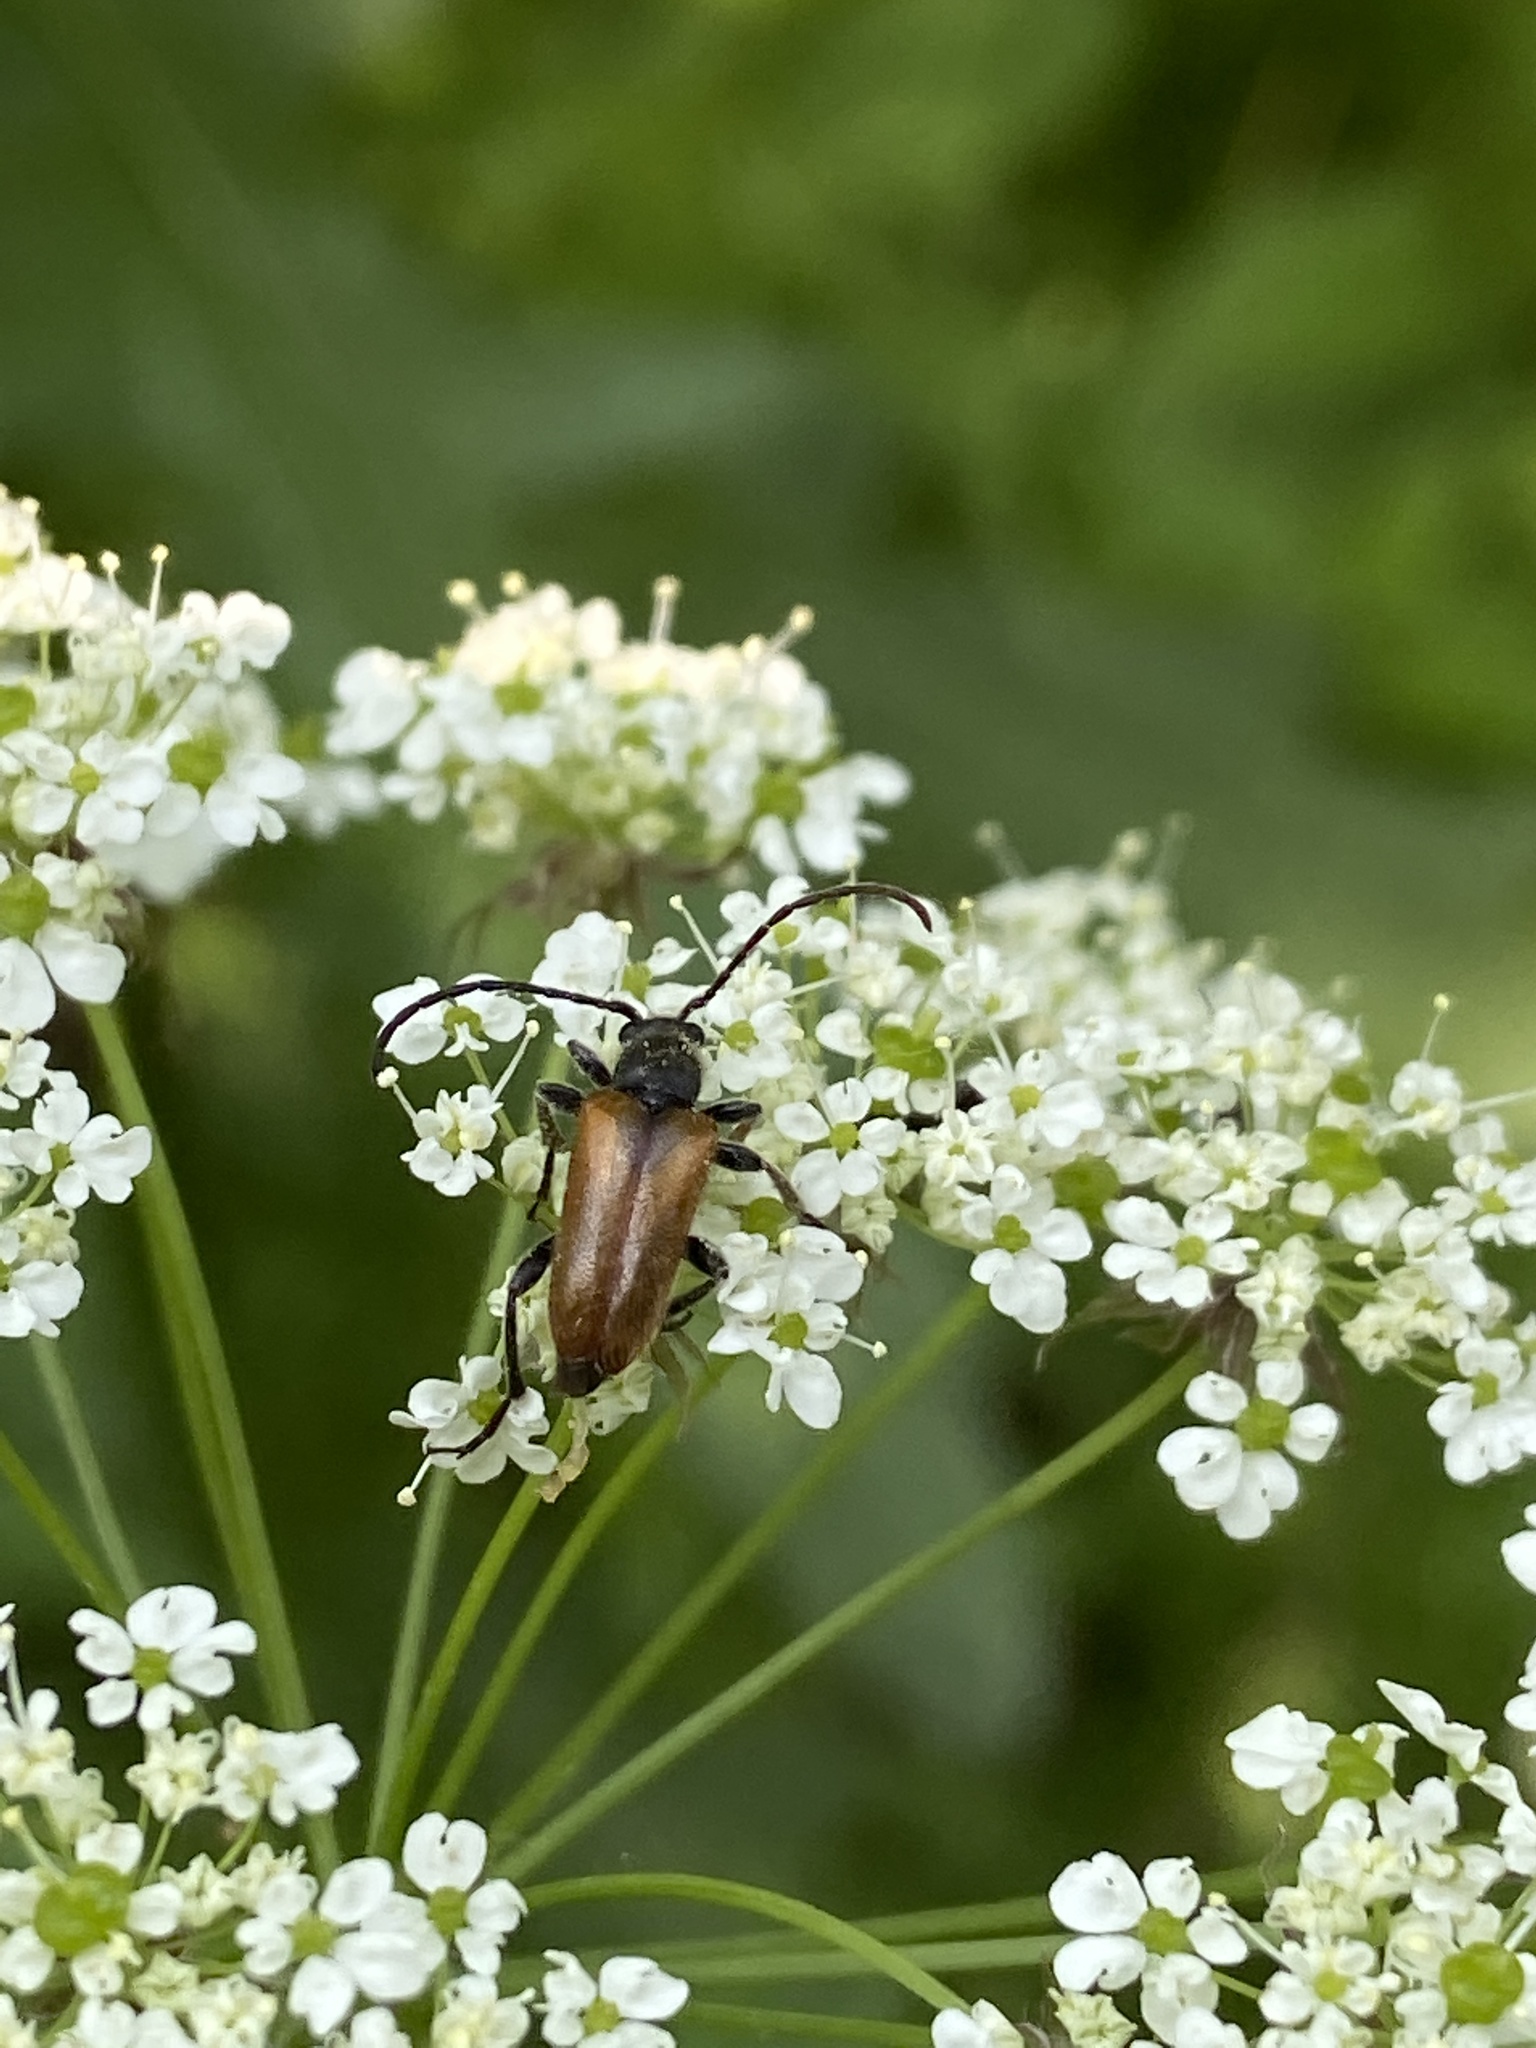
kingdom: Animalia
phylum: Arthropoda
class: Insecta
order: Coleoptera
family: Cerambycidae
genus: Pseudovadonia
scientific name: Pseudovadonia livida
